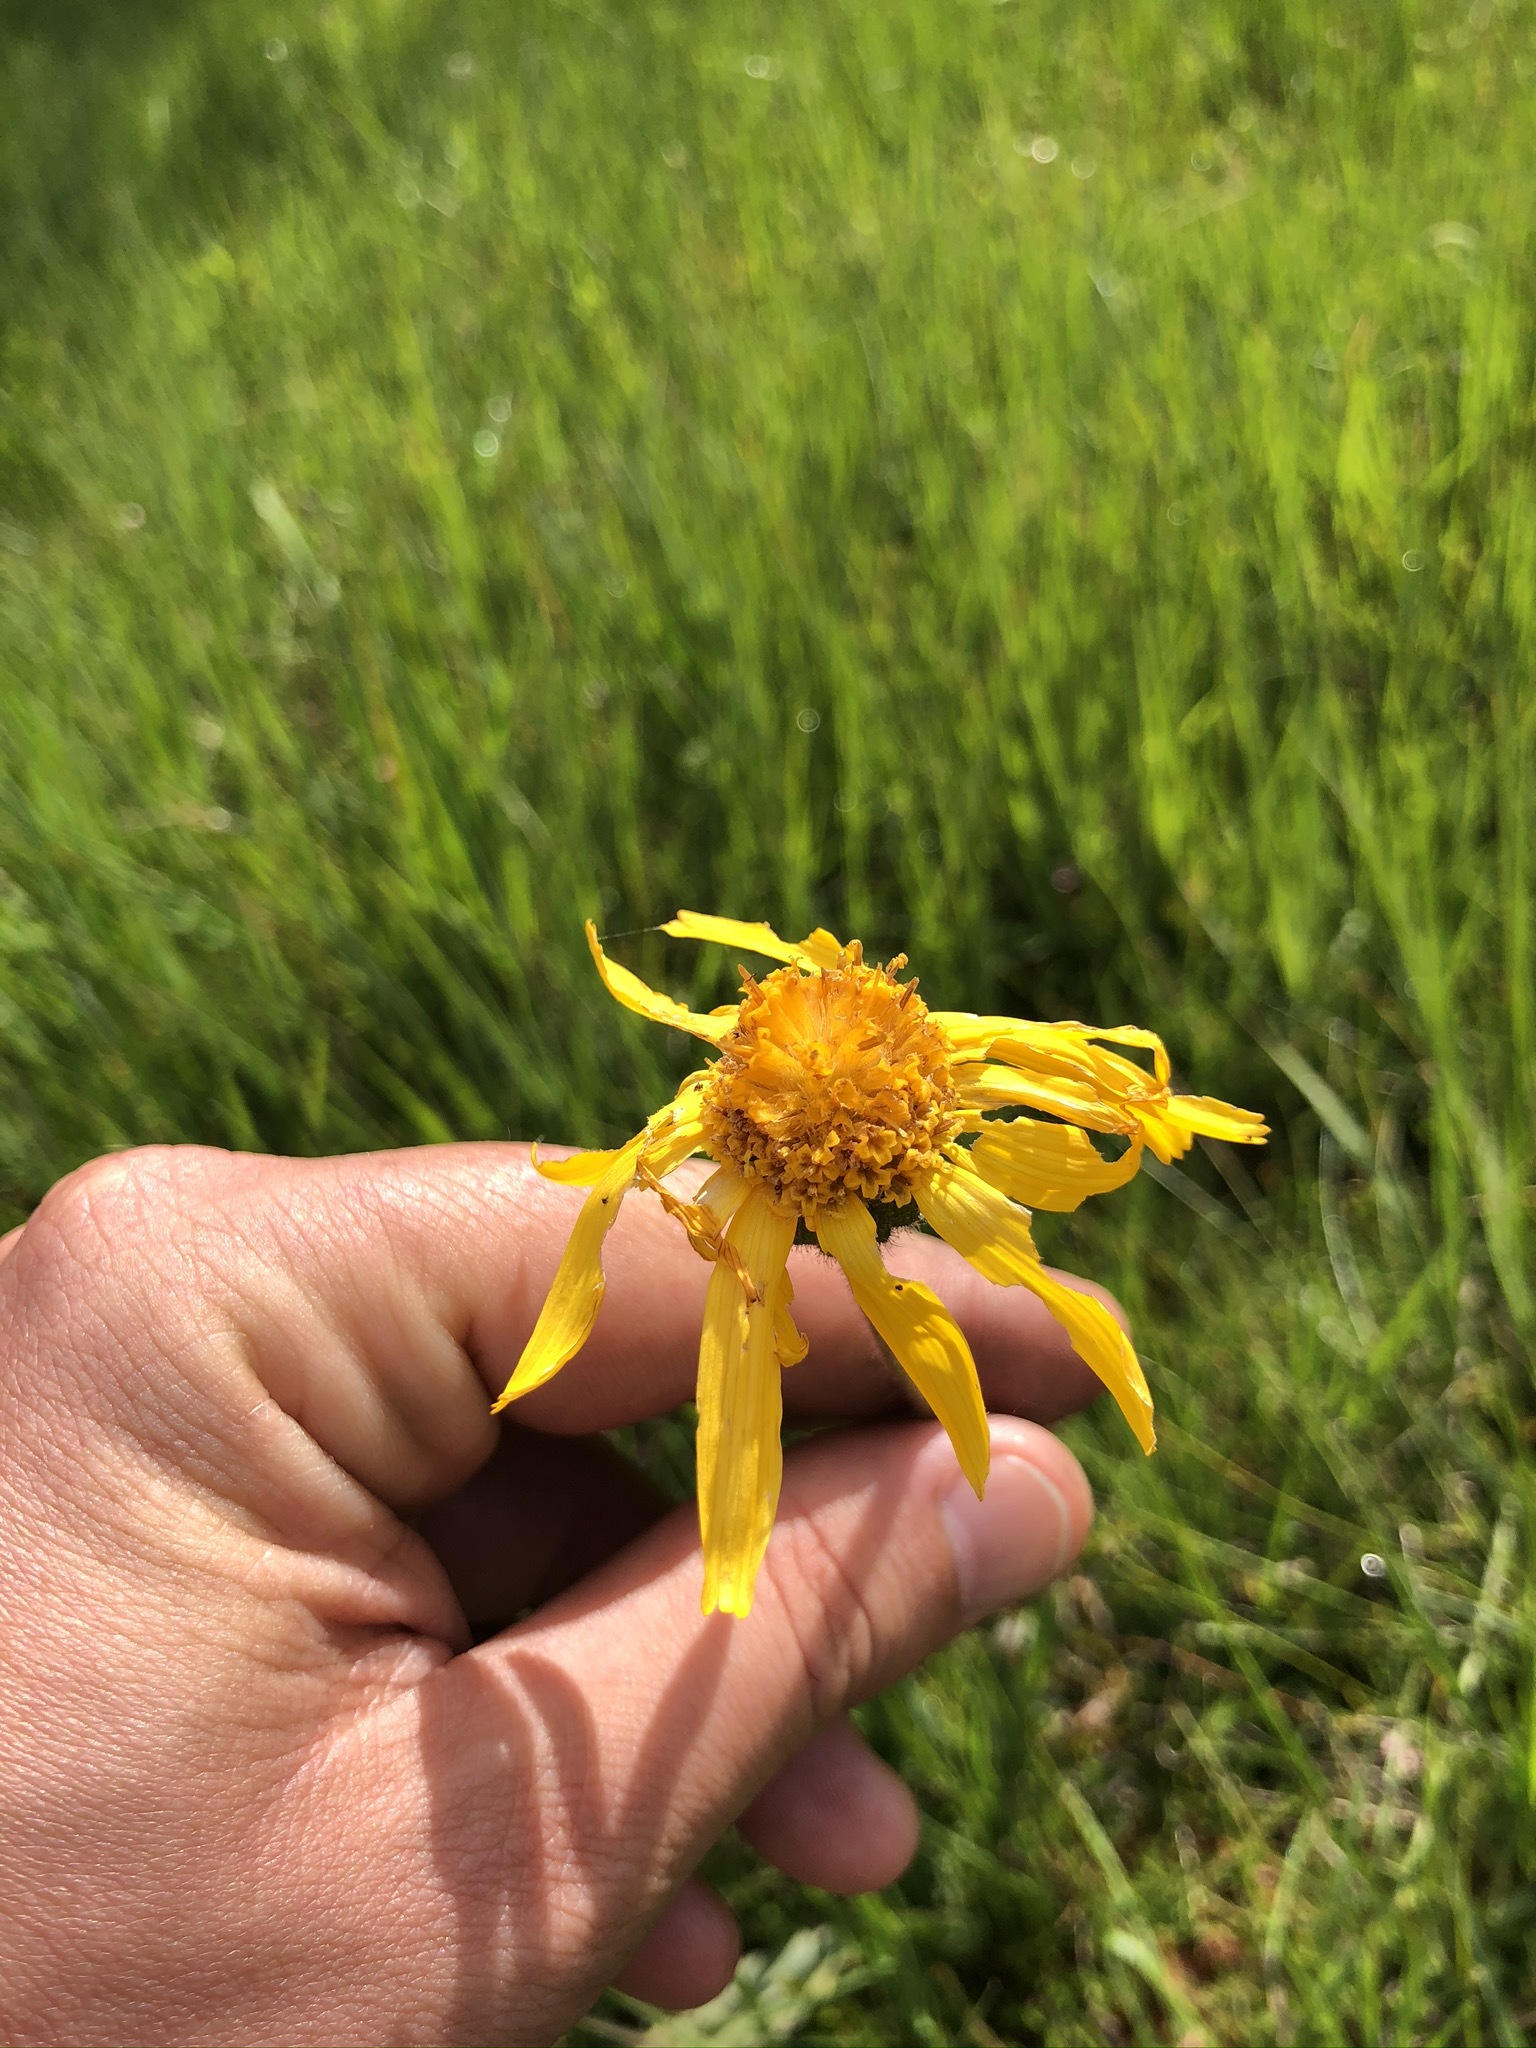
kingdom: Plantae
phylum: Tracheophyta
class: Magnoliopsida
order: Asterales
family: Asteraceae
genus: Arnica
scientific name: Arnica montana
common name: Leopard's bane
